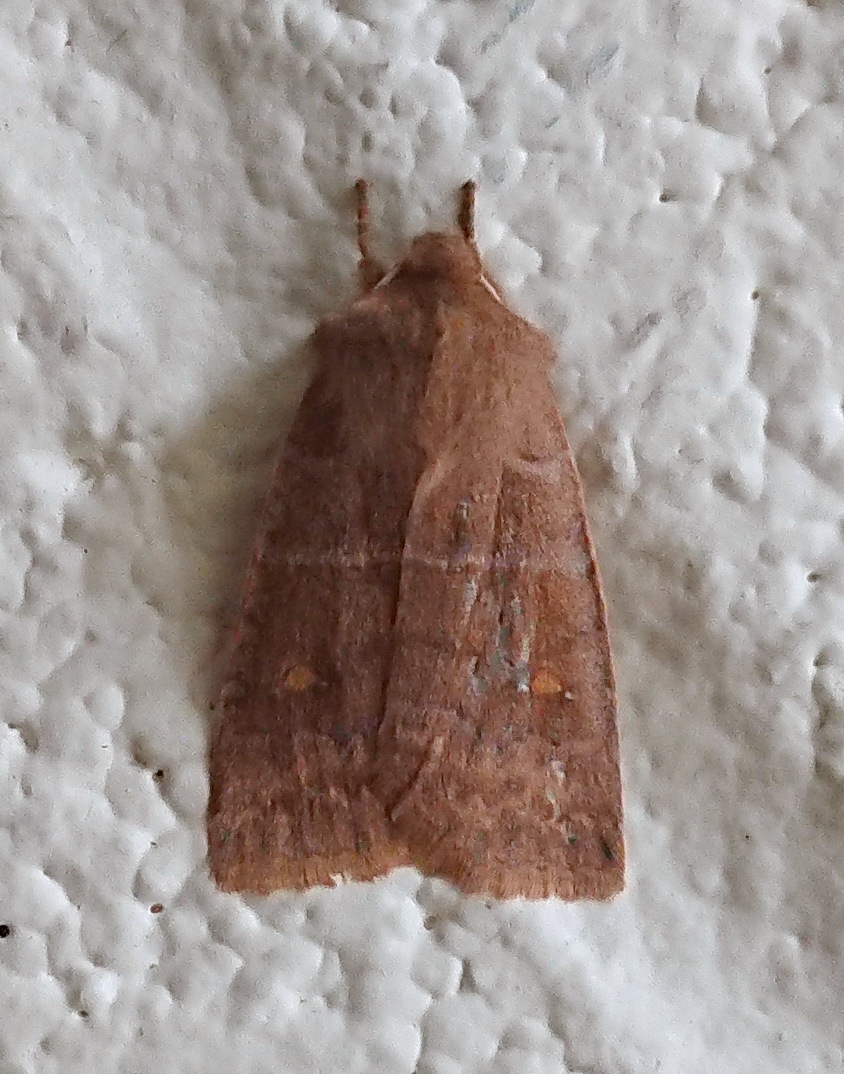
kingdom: Animalia
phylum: Arthropoda
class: Insecta
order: Lepidoptera
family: Noctuidae
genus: Eupsilia
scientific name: Eupsilia vinulenta
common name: Straight-toothed sallow
